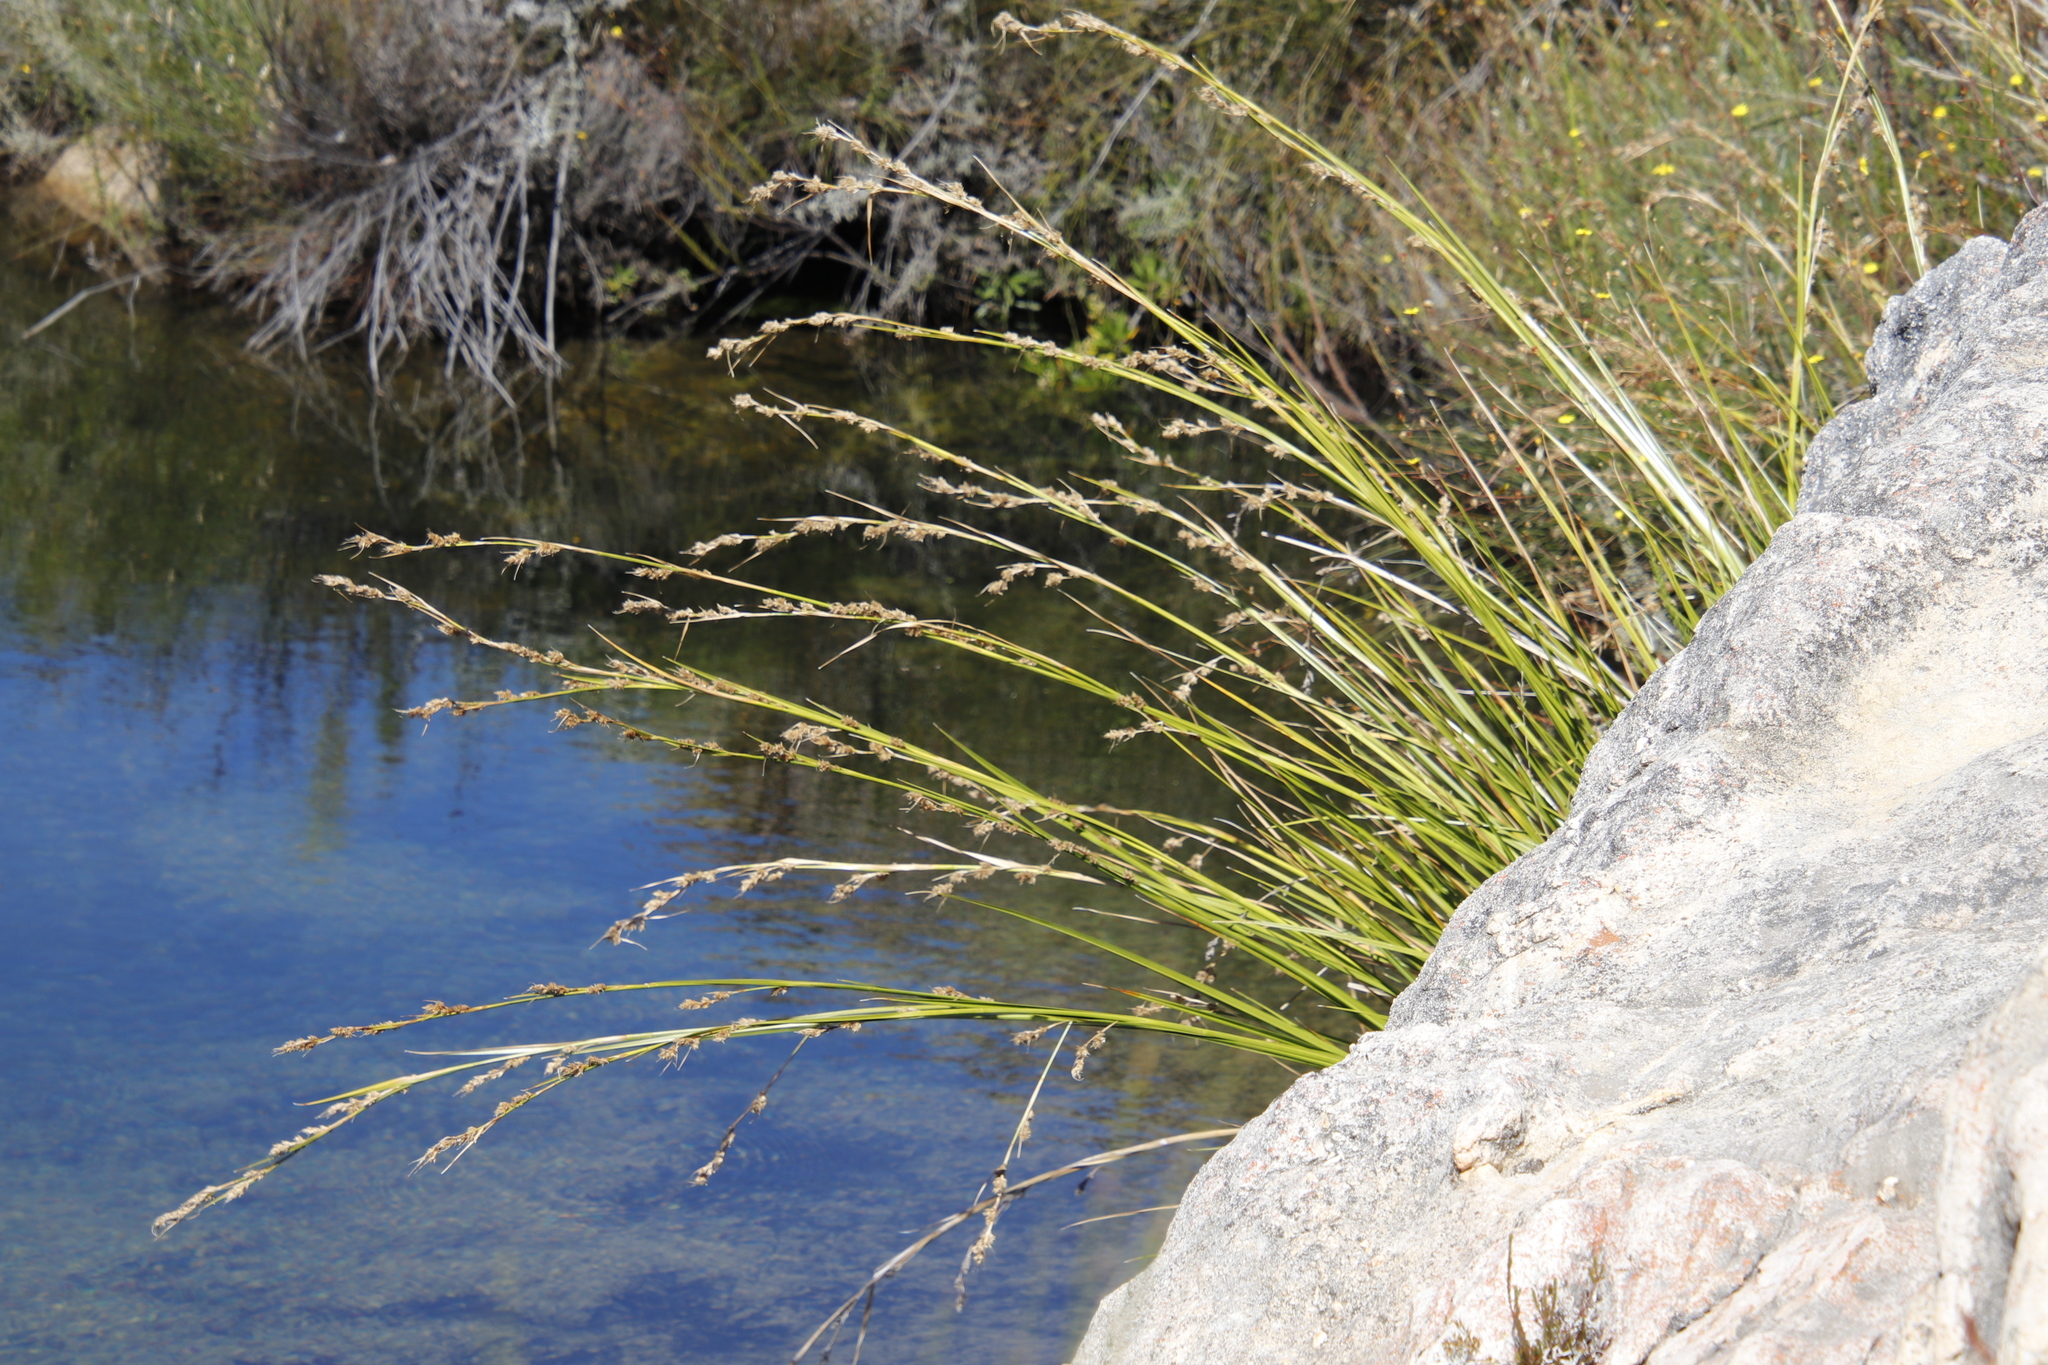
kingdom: Plantae
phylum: Tracheophyta
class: Liliopsida
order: Poales
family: Cyperaceae
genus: Carpha
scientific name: Carpha schlechteri
